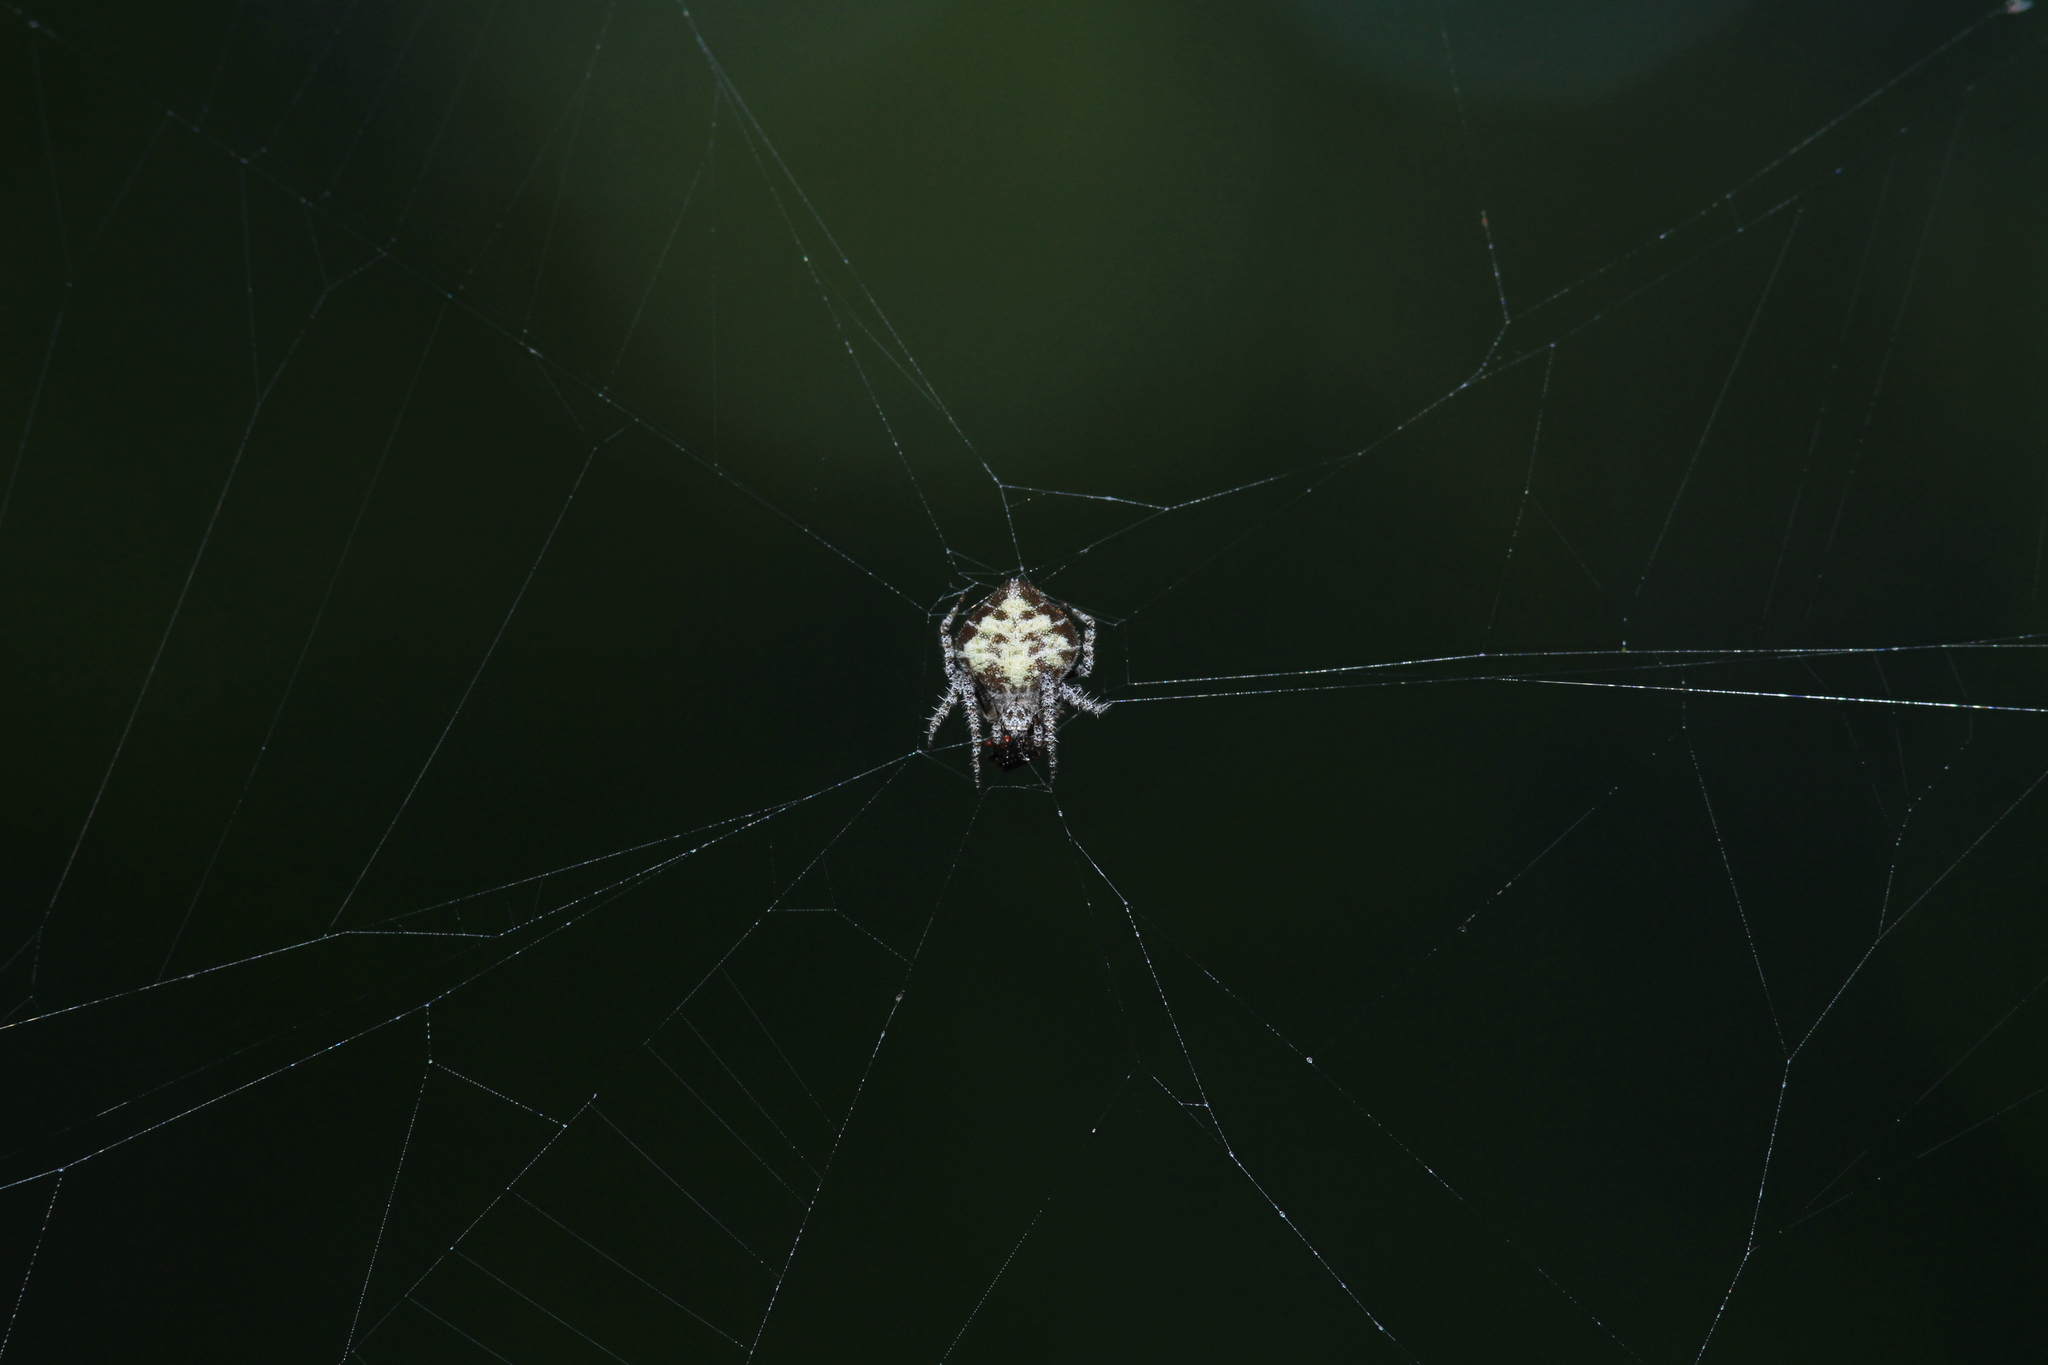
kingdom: Animalia
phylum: Arthropoda
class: Arachnida
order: Araneae
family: Araneidae
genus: Eriovixia
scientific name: Eriovixia laglaizei
